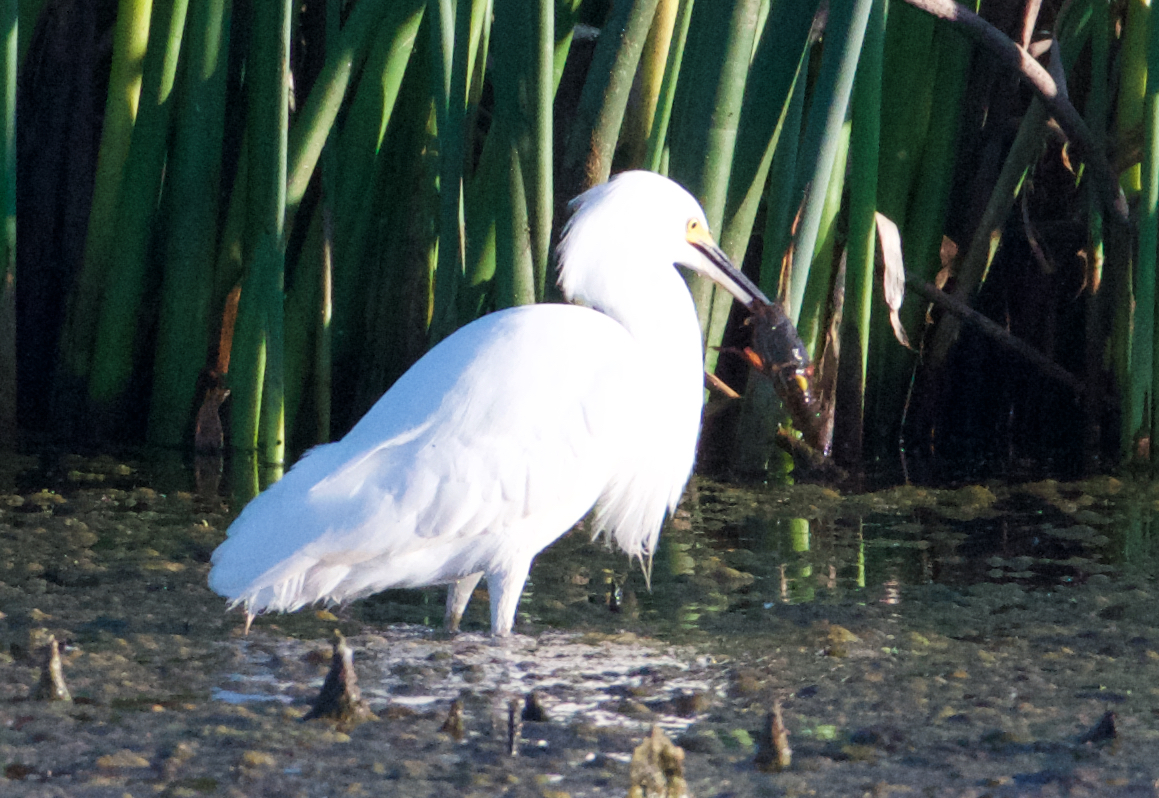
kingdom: Animalia
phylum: Chordata
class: Aves
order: Pelecaniformes
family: Ardeidae
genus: Egretta
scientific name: Egretta thula
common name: Snowy egret
